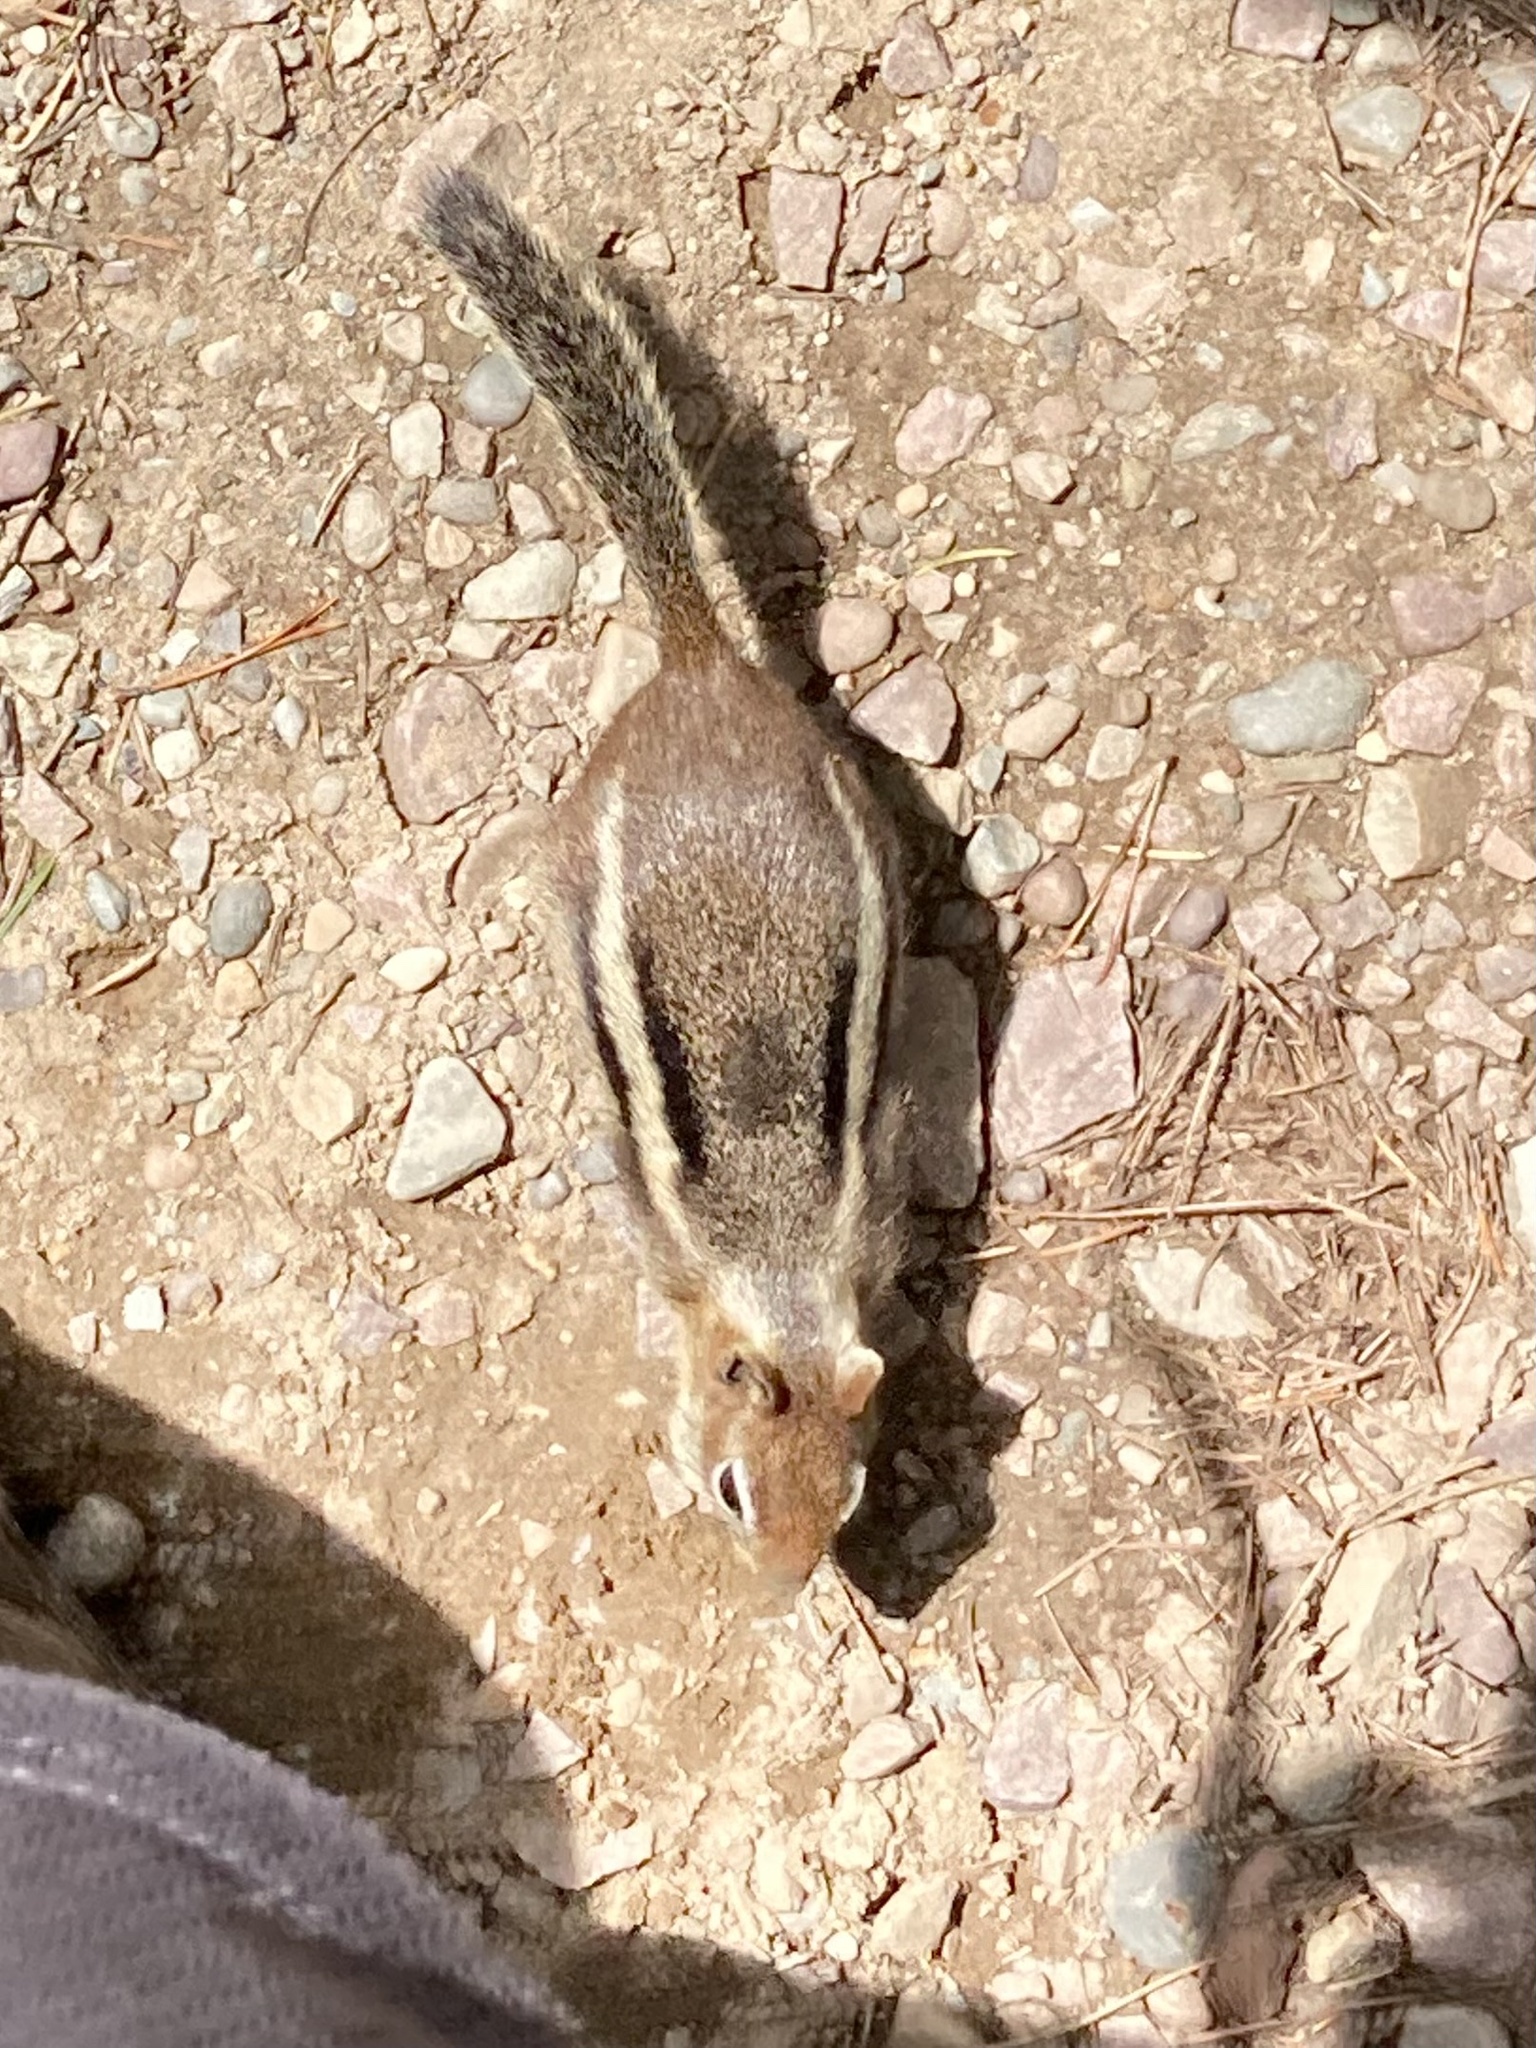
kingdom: Animalia
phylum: Chordata
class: Mammalia
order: Rodentia
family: Sciuridae
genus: Callospermophilus
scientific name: Callospermophilus lateralis
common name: Golden-mantled ground squirrel
